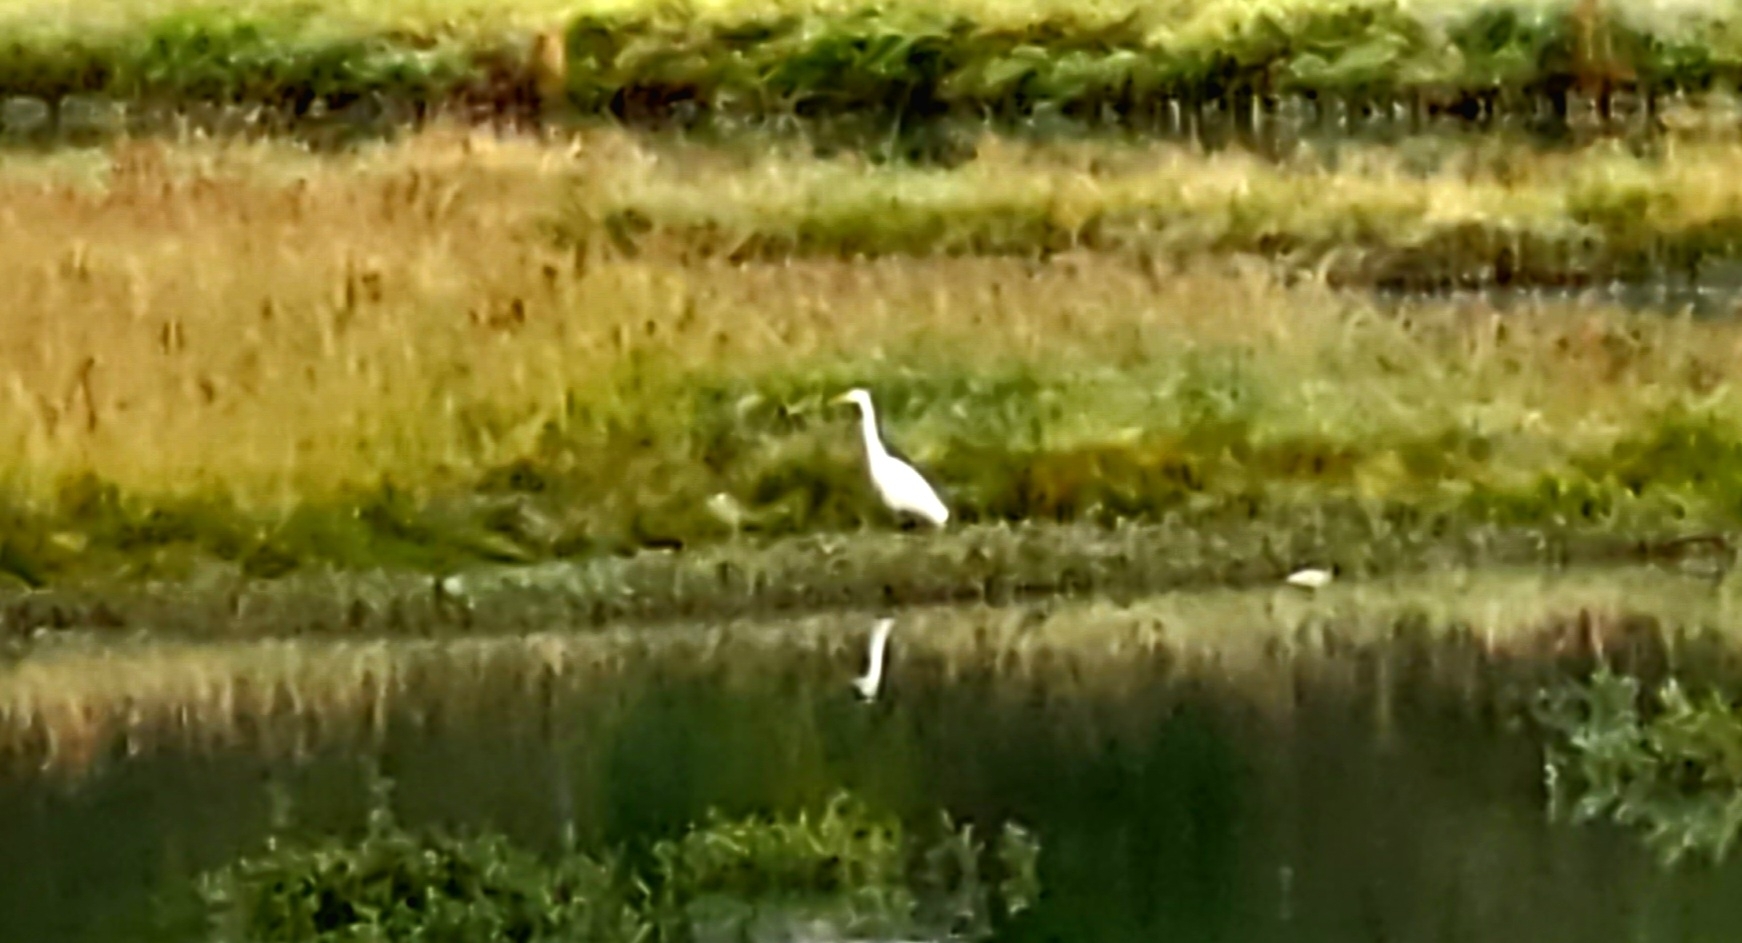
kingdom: Animalia
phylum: Chordata
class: Aves
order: Pelecaniformes
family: Ardeidae
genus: Ardea
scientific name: Ardea alba
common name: Great egret
